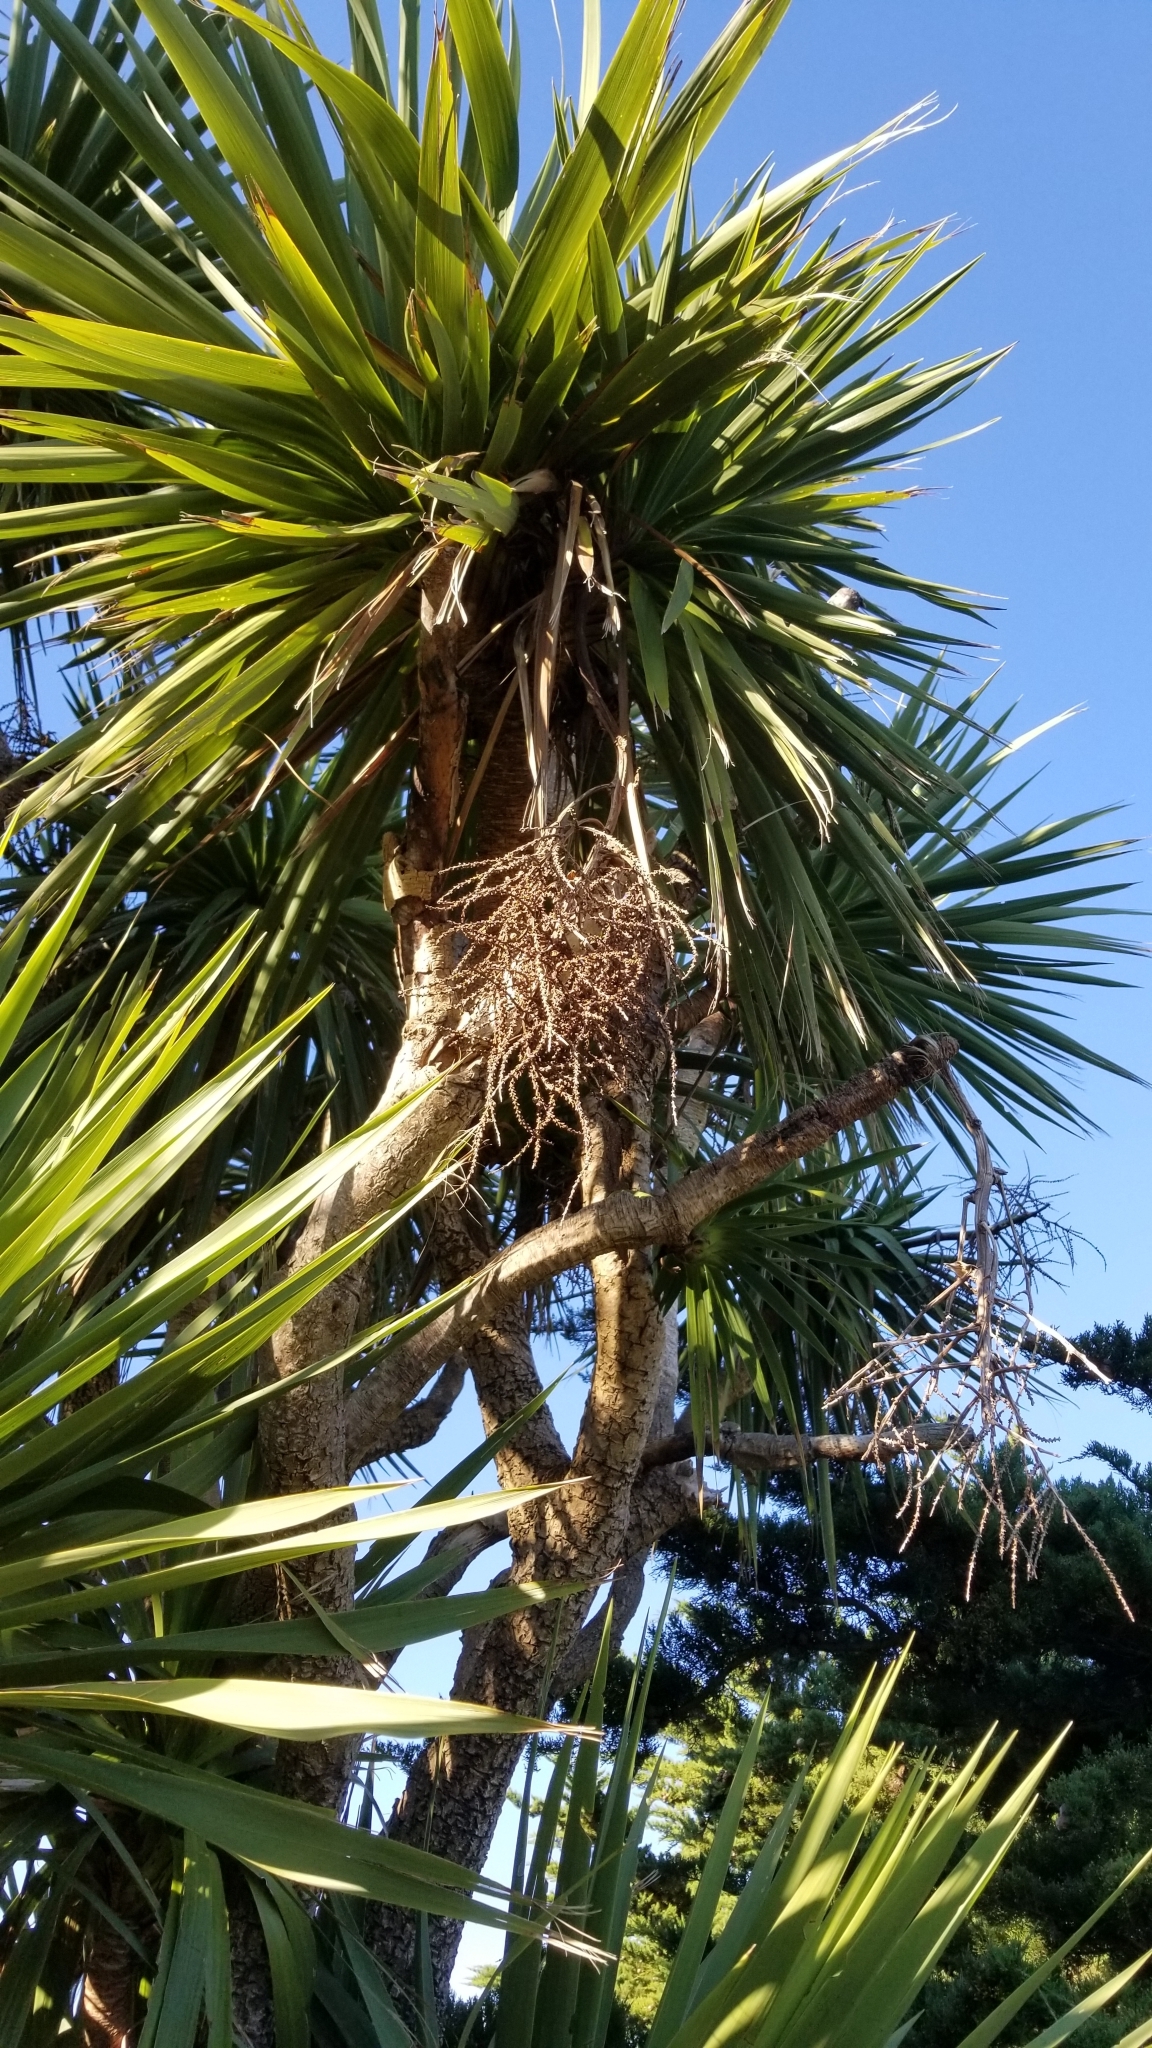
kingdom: Plantae
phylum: Tracheophyta
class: Liliopsida
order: Asparagales
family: Asparagaceae
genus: Cordyline
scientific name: Cordyline australis
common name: Cabbage-palm
